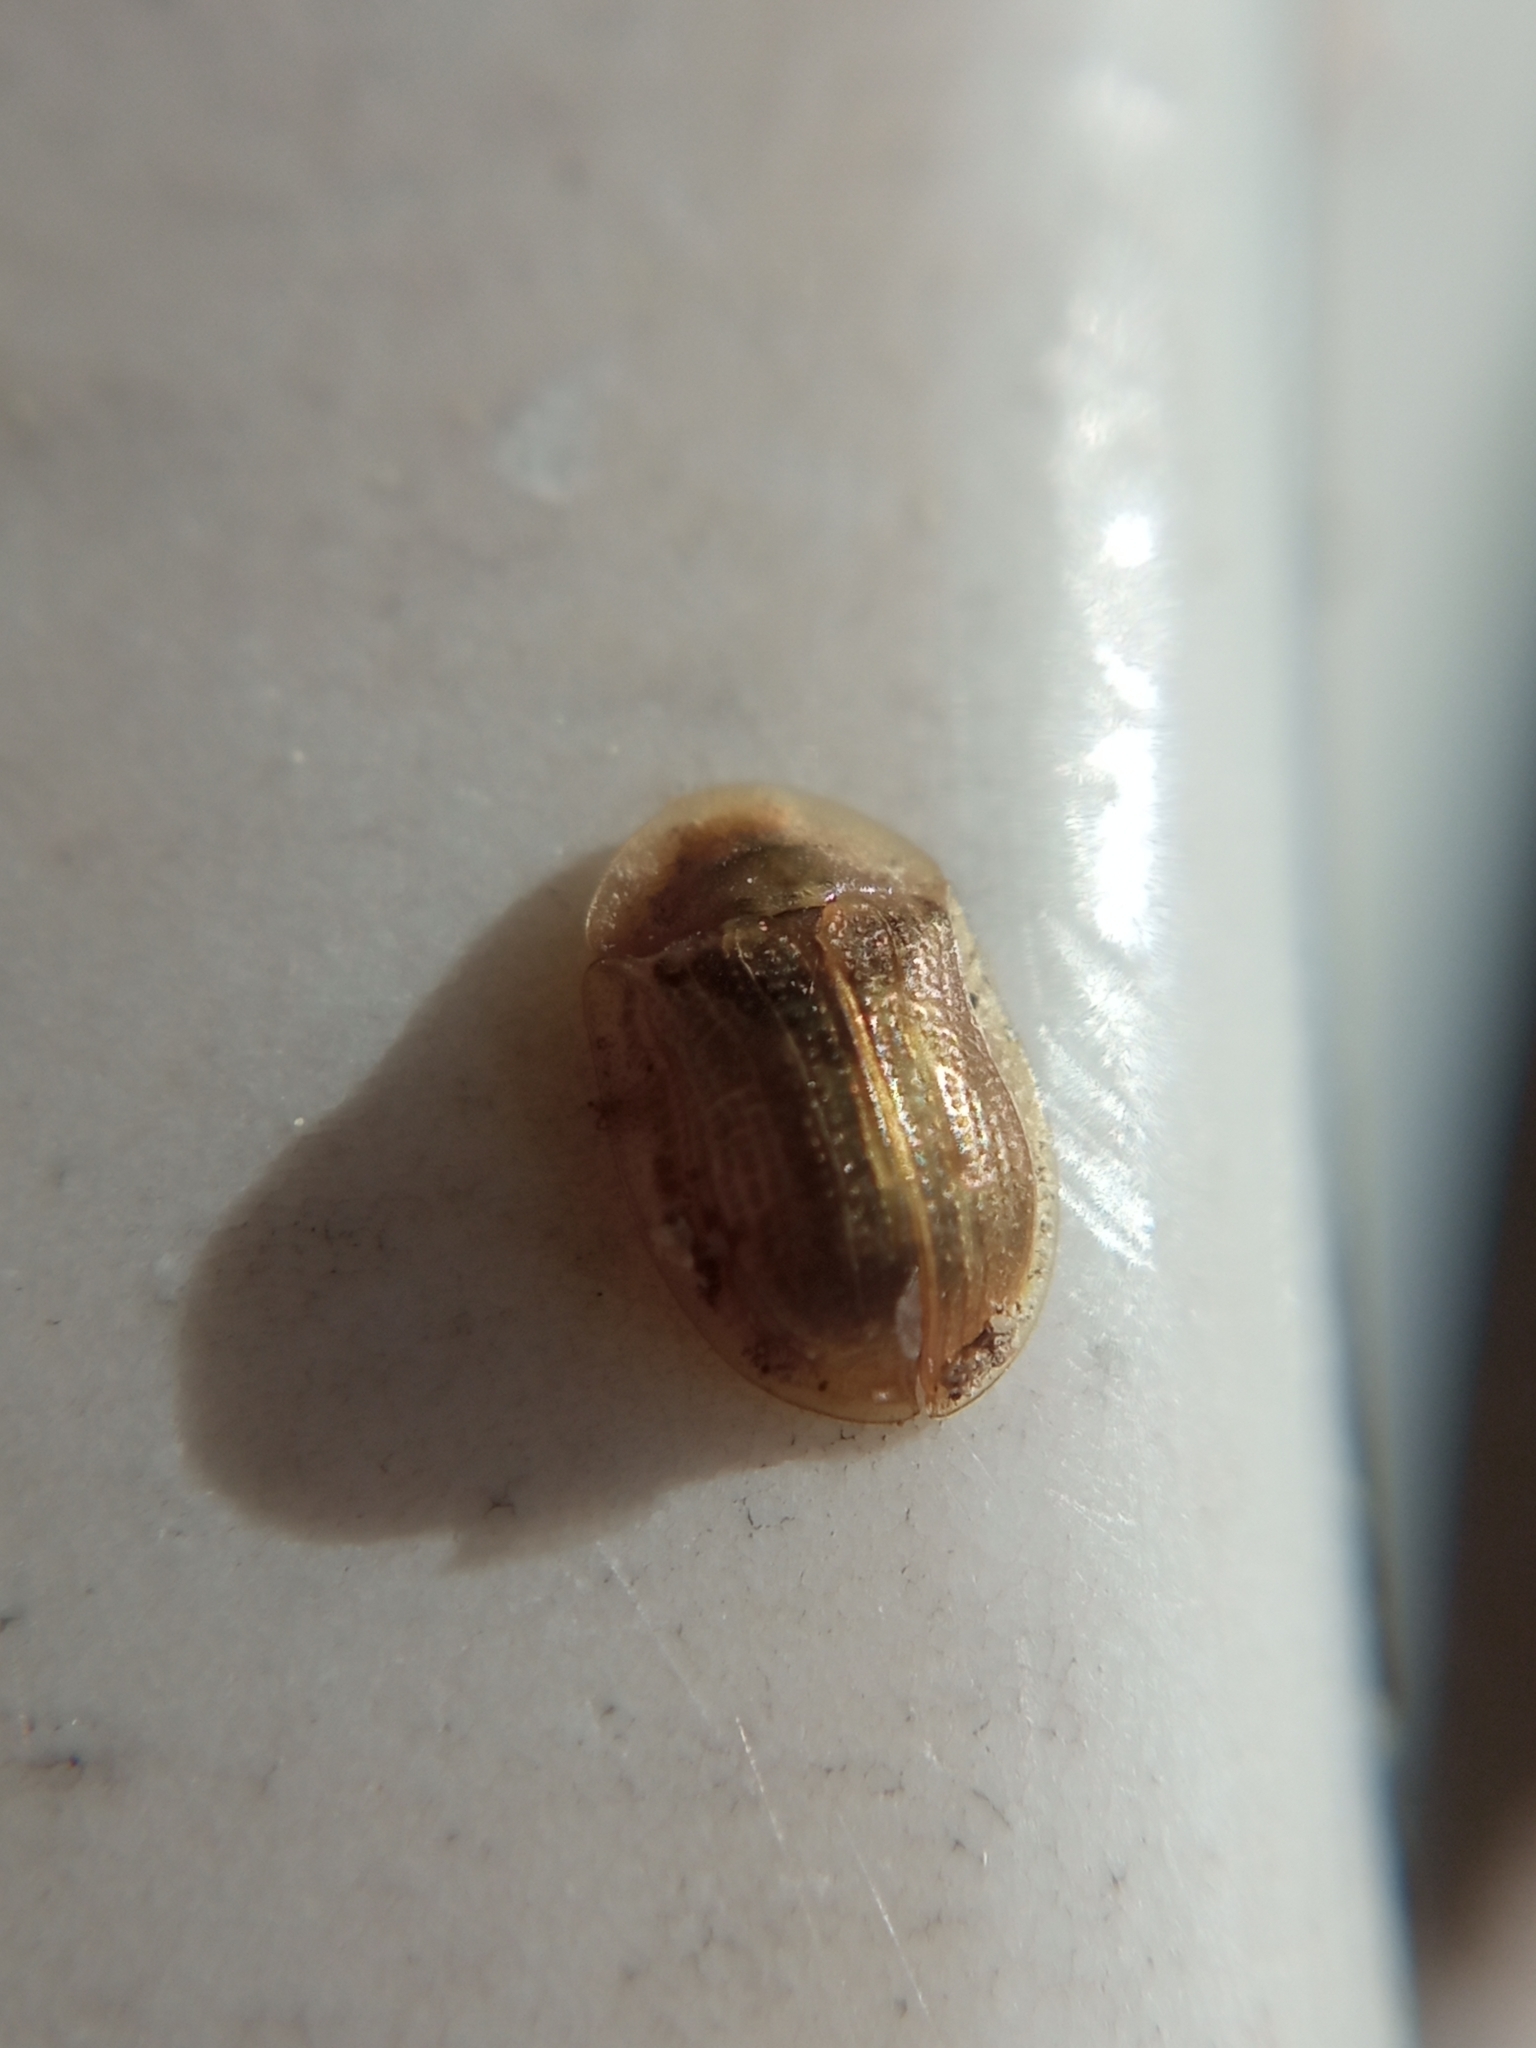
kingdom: Animalia
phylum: Arthropoda
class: Insecta
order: Coleoptera
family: Chrysomelidae
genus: Cassida
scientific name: Cassida flaveola
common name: Pale tortoise beetle
